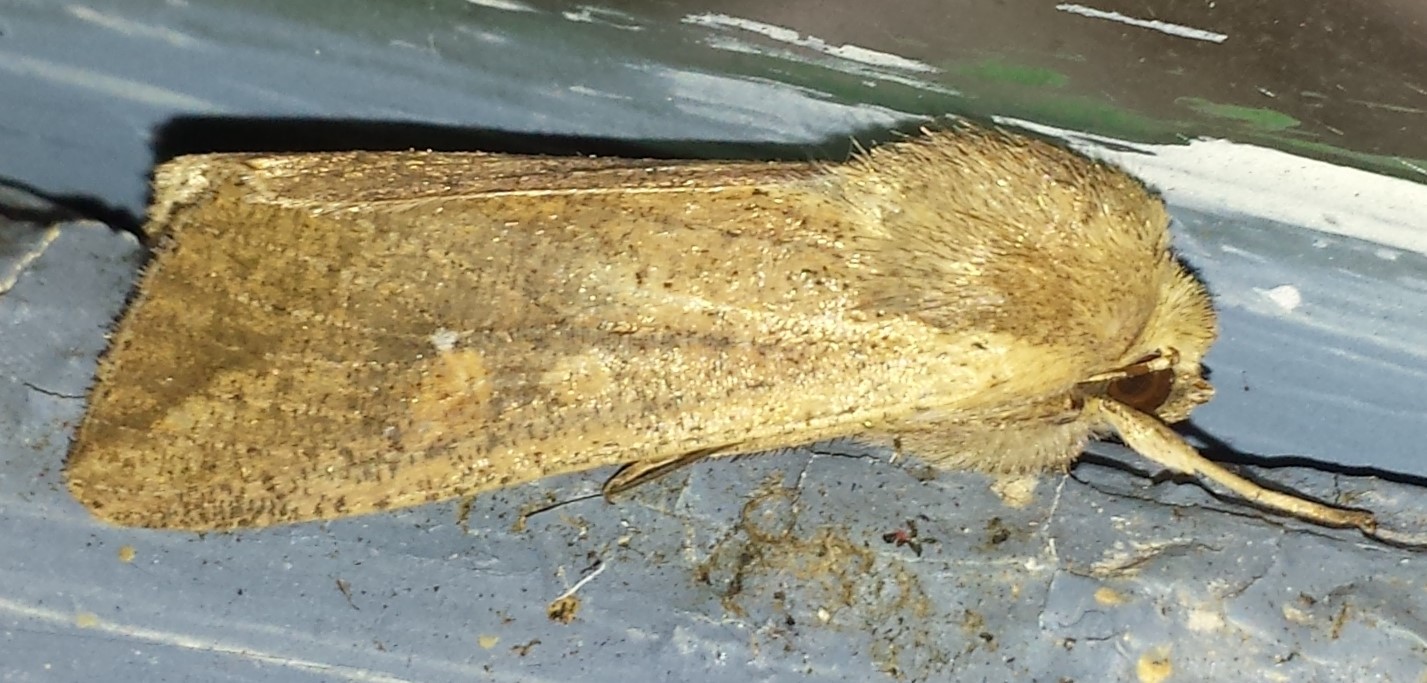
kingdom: Animalia
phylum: Arthropoda
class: Insecta
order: Lepidoptera
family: Noctuidae
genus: Mythimna
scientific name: Mythimna unipuncta
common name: White-speck
